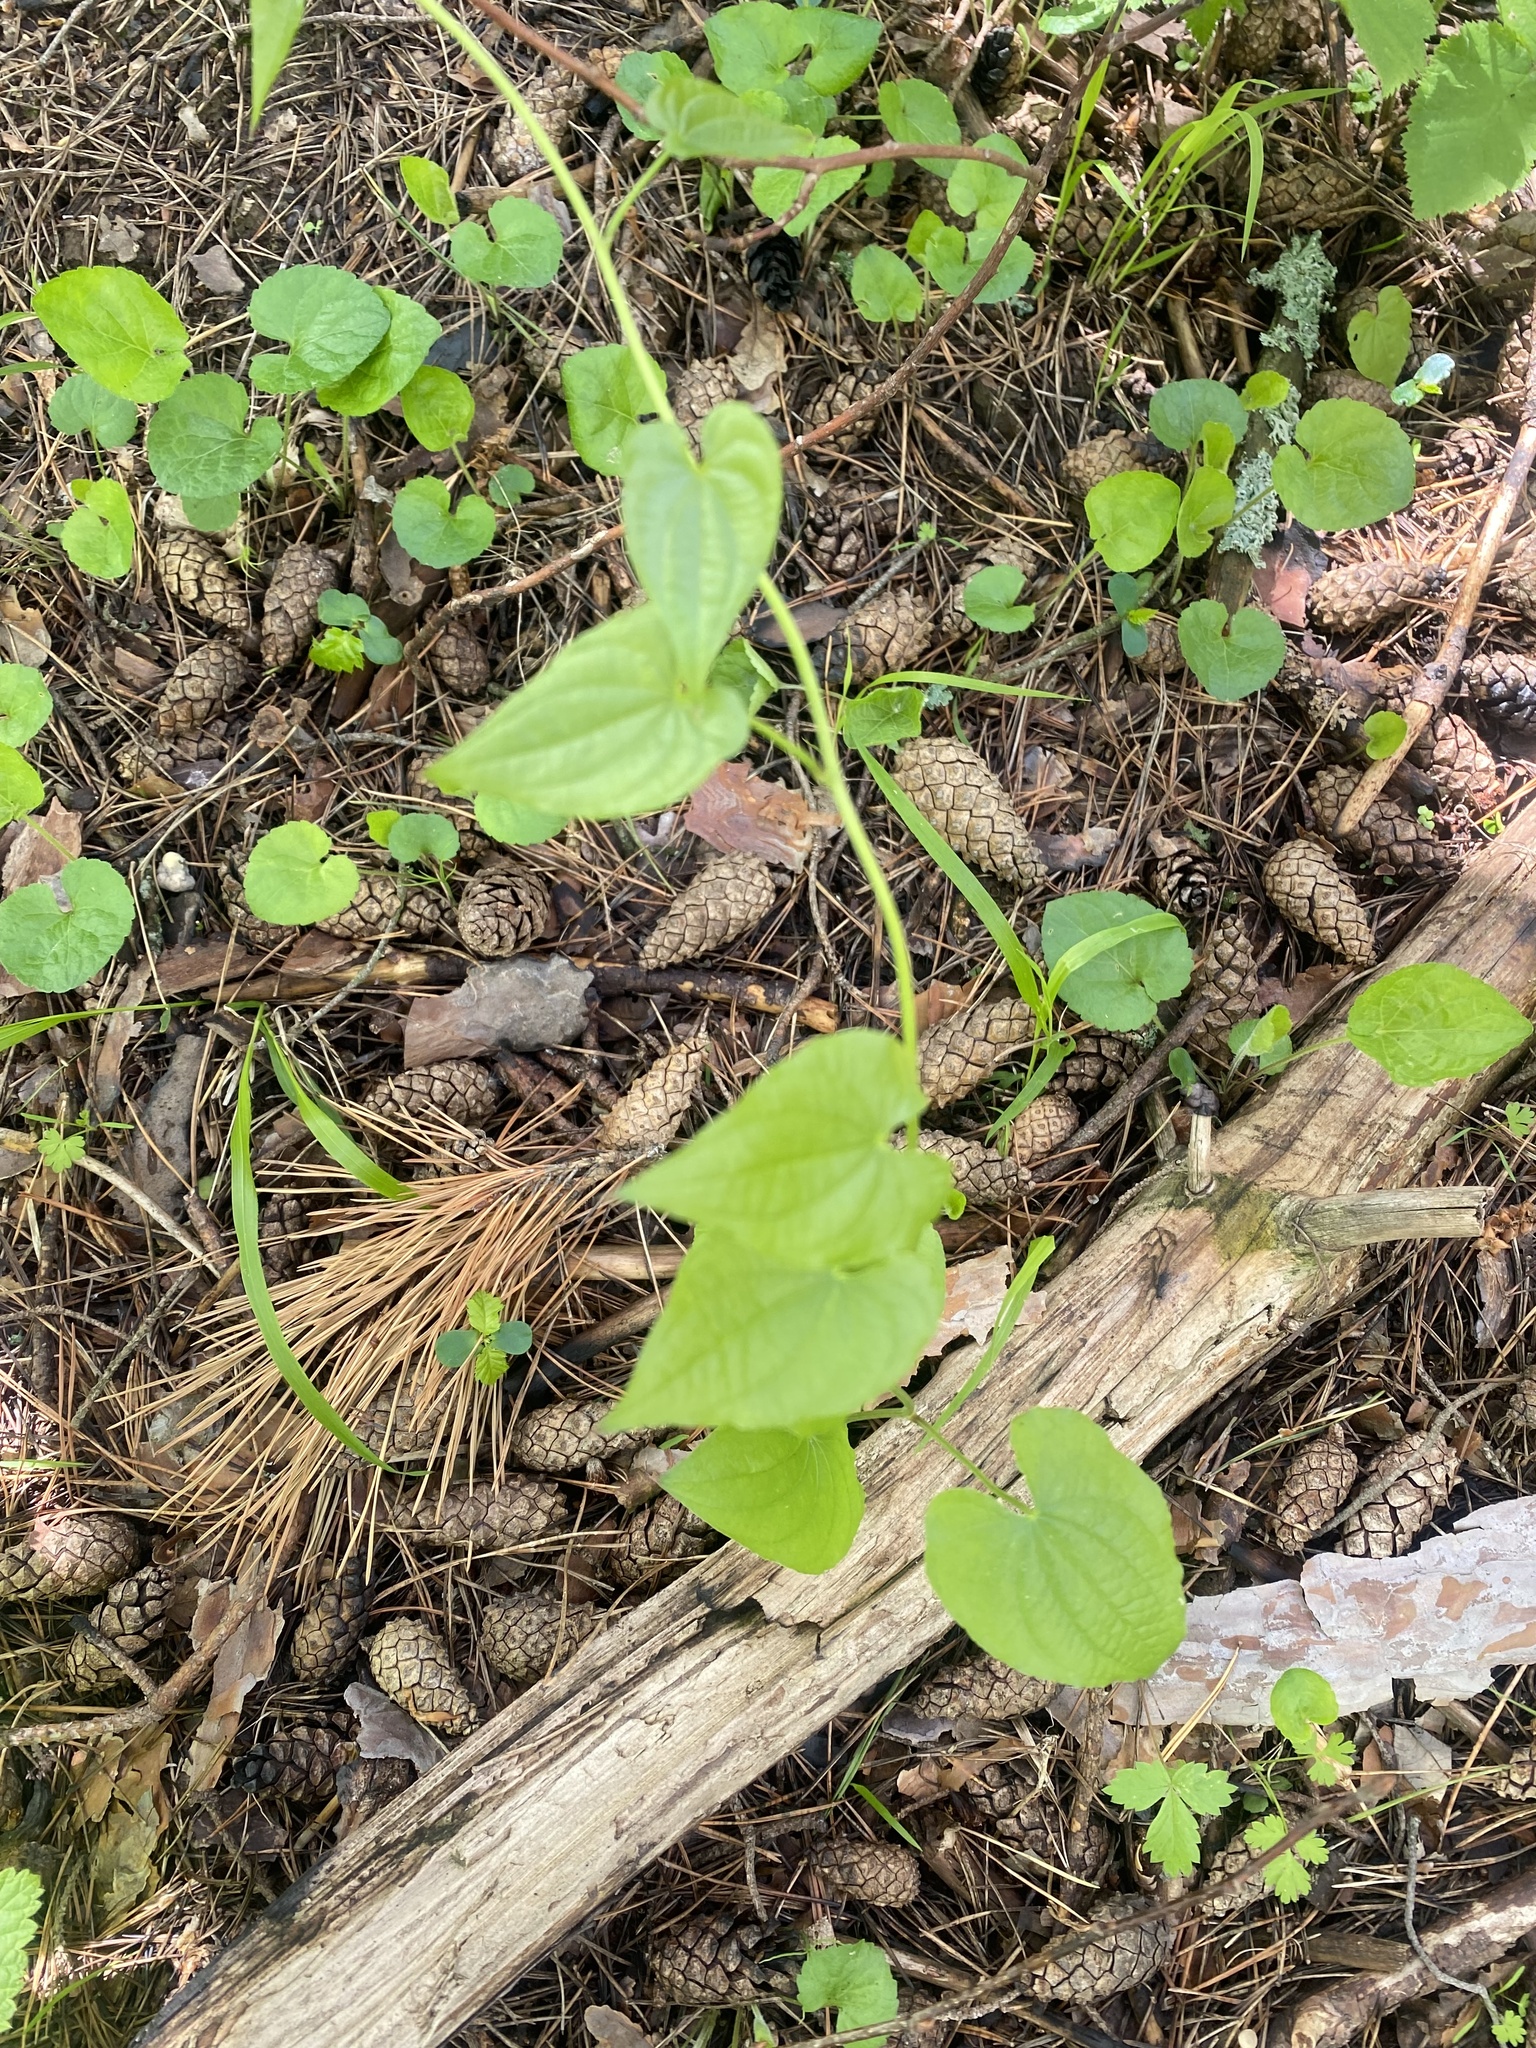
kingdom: Plantae
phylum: Tracheophyta
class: Liliopsida
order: Dioscoreales
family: Dioscoreaceae
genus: Dioscorea
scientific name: Dioscorea communis
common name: Black-bindweed
